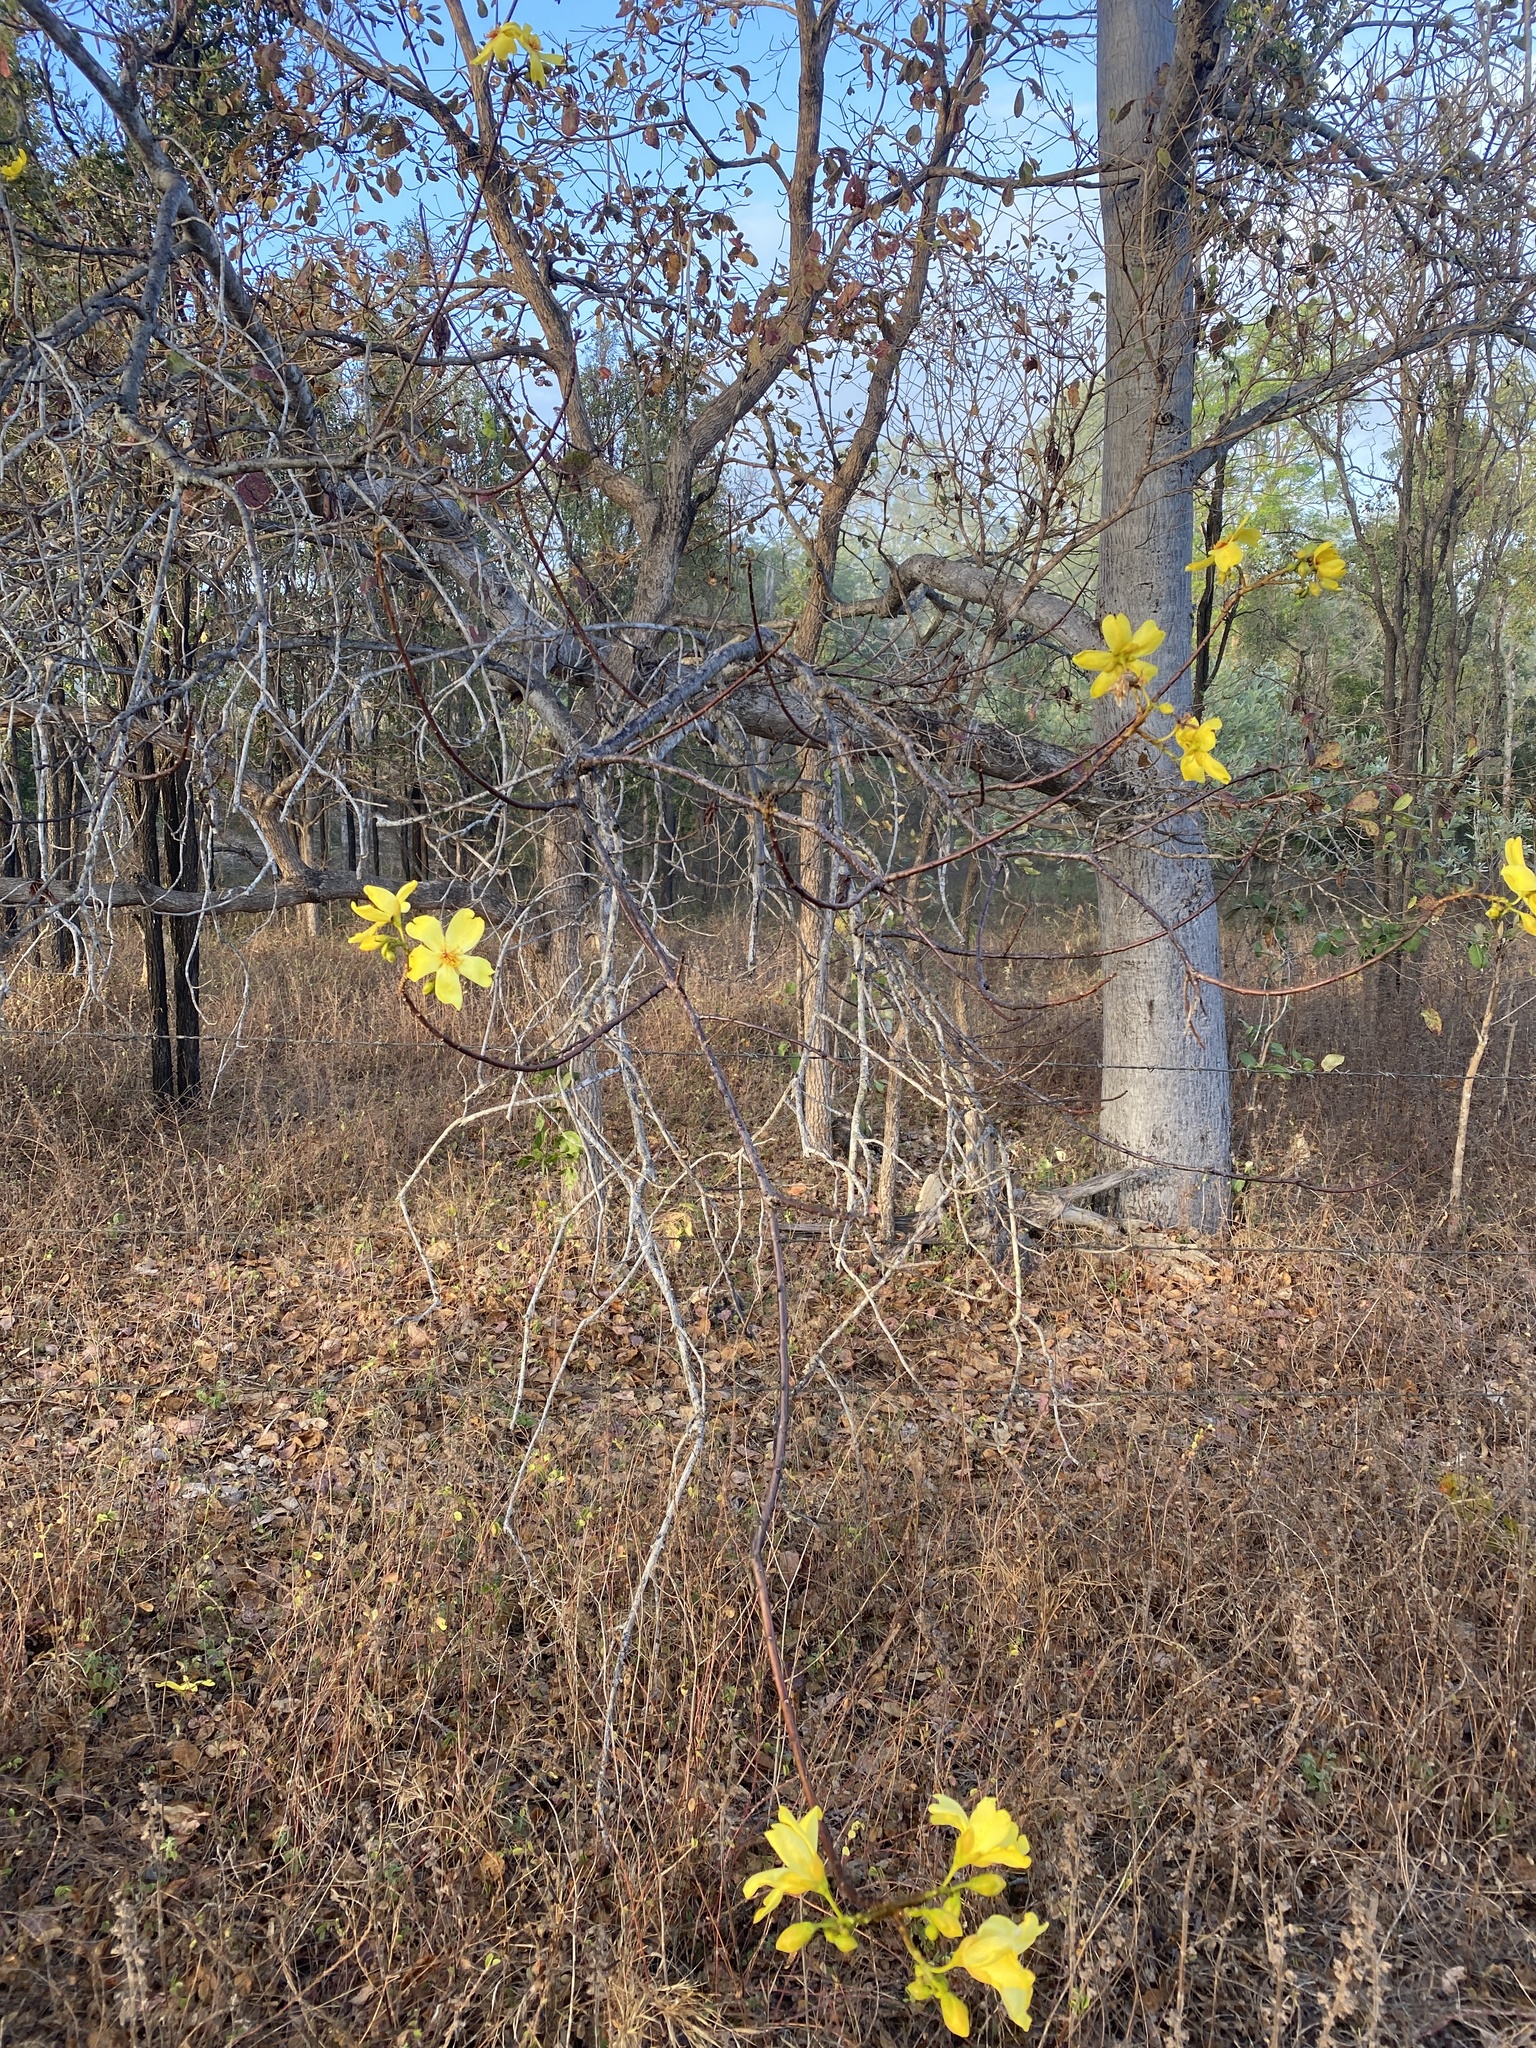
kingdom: Plantae
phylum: Tracheophyta
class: Magnoliopsida
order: Malvales
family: Cochlospermaceae
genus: Cochlospermum
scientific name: Cochlospermum gillivraei
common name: Cottontree
